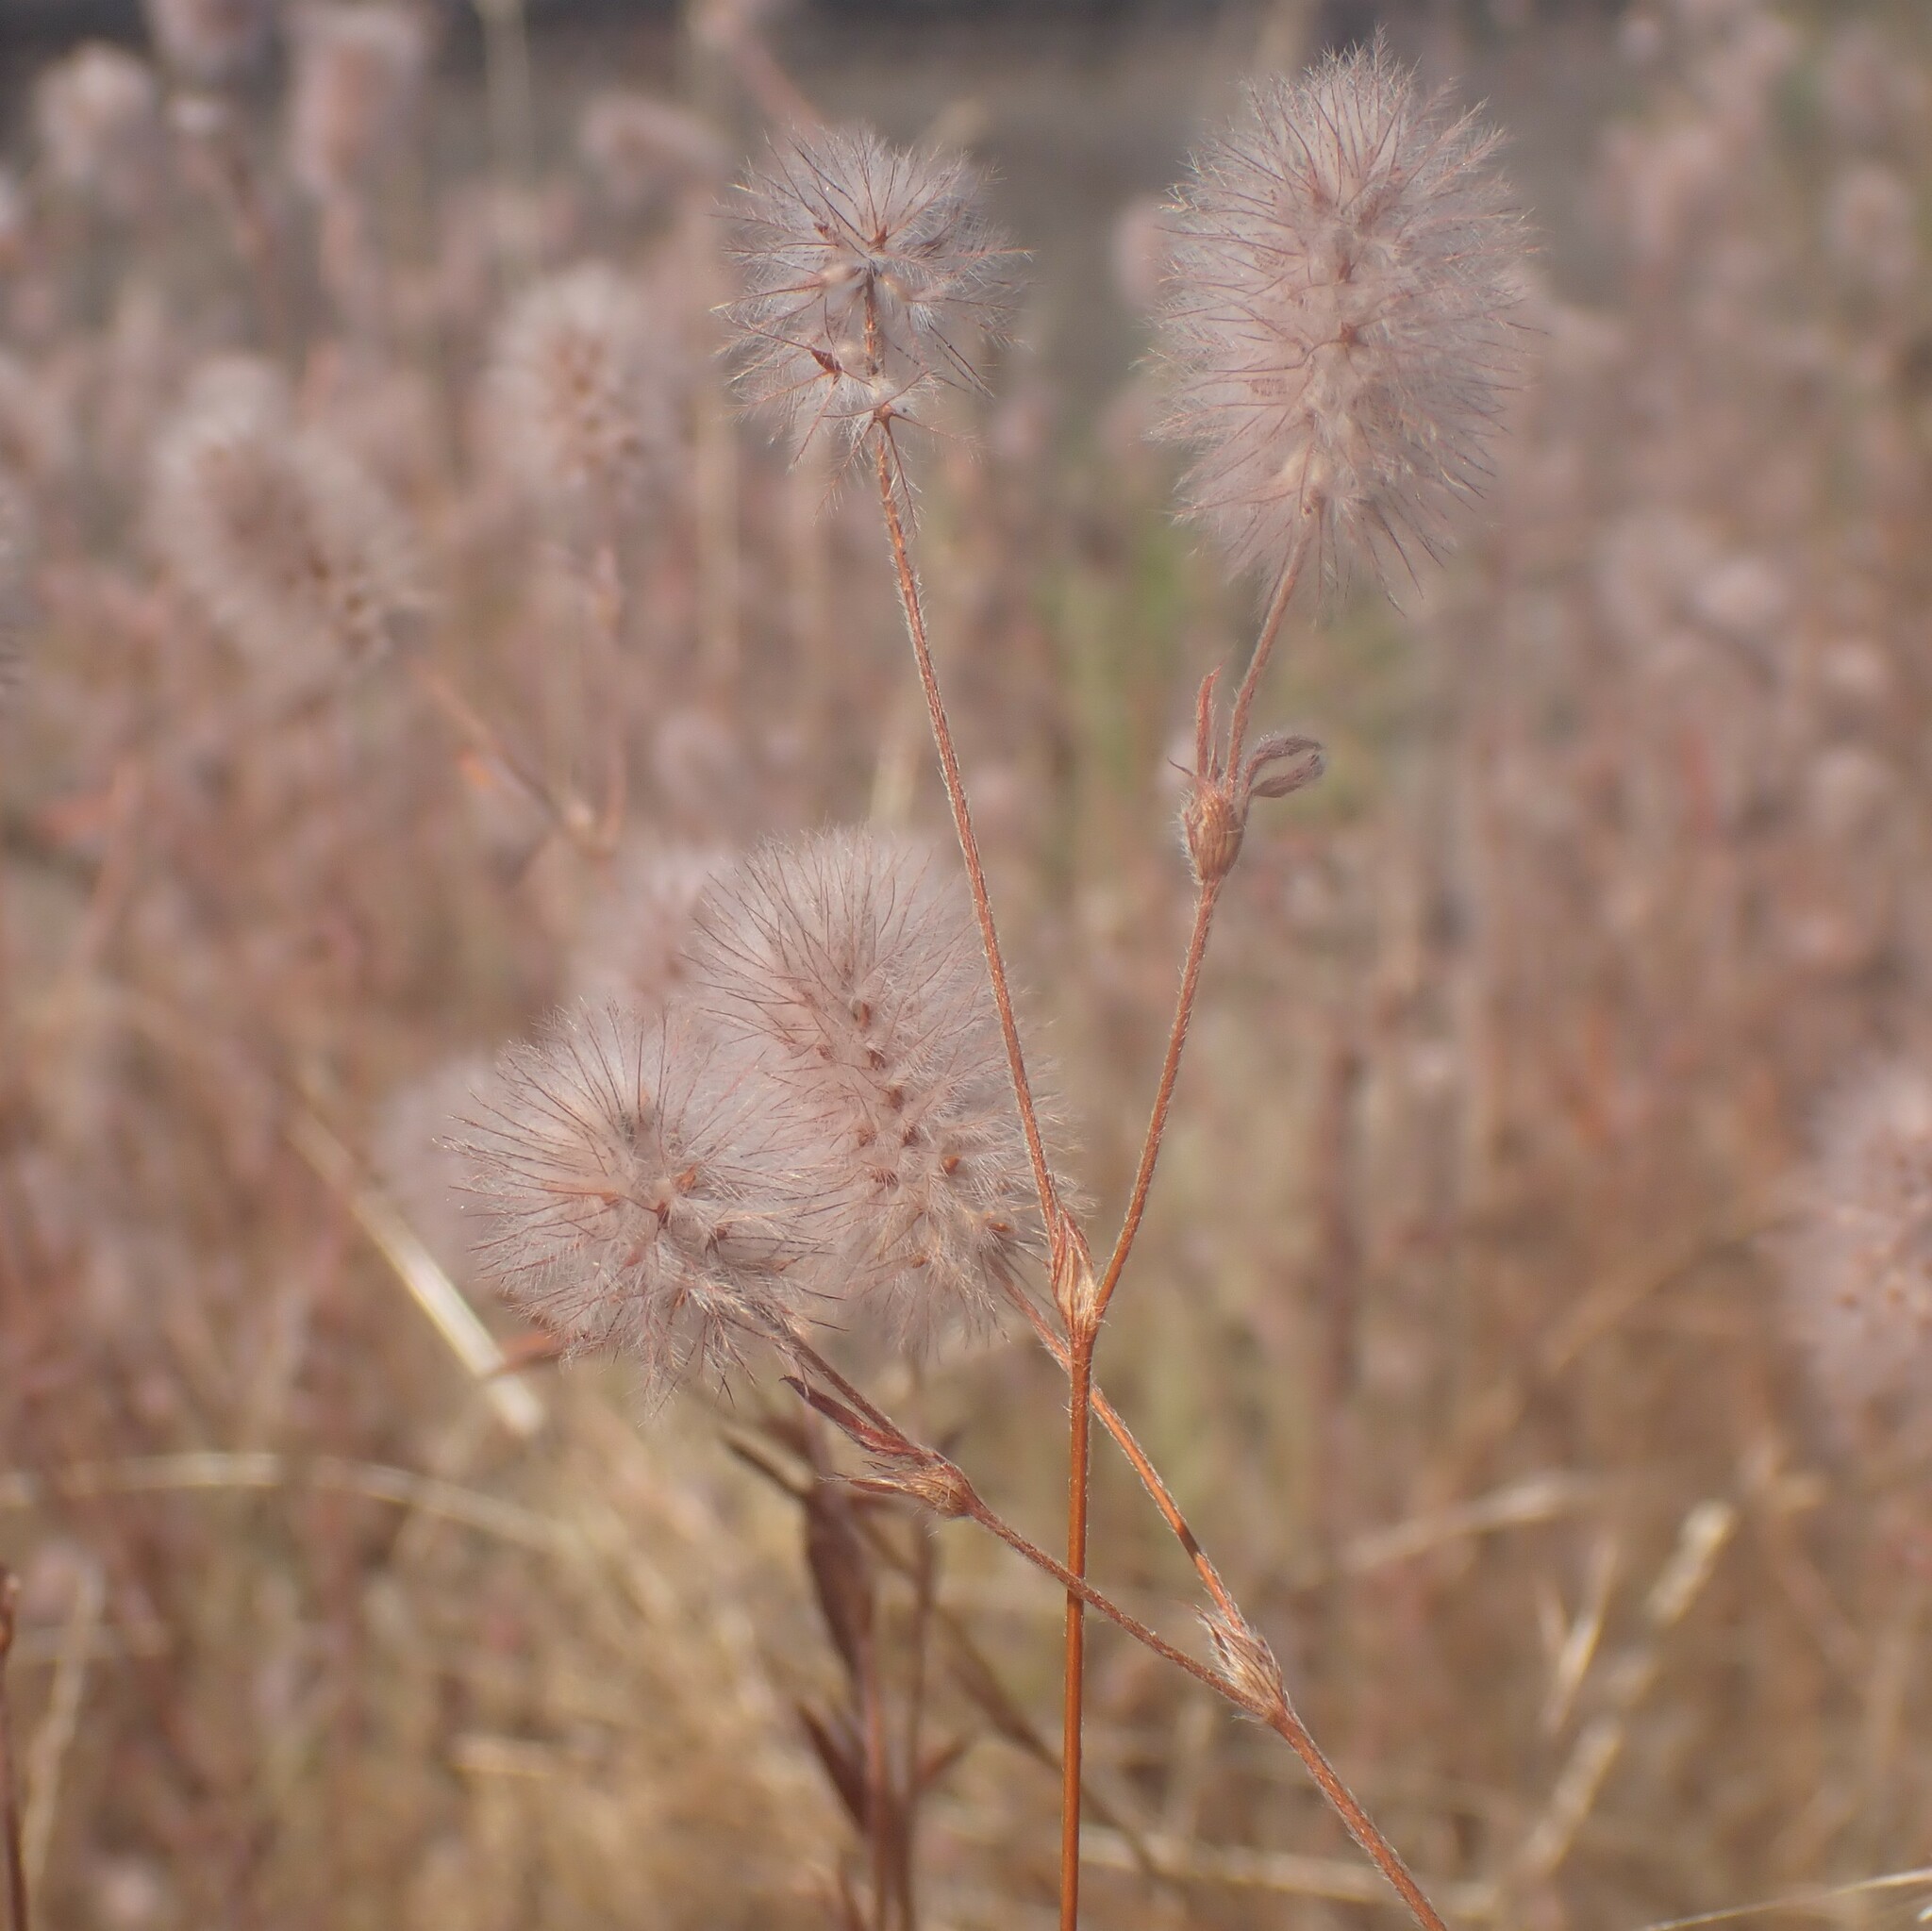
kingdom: Plantae
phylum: Tracheophyta
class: Magnoliopsida
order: Fabales
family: Fabaceae
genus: Trifolium
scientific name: Trifolium arvense
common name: Hare's-foot clover
